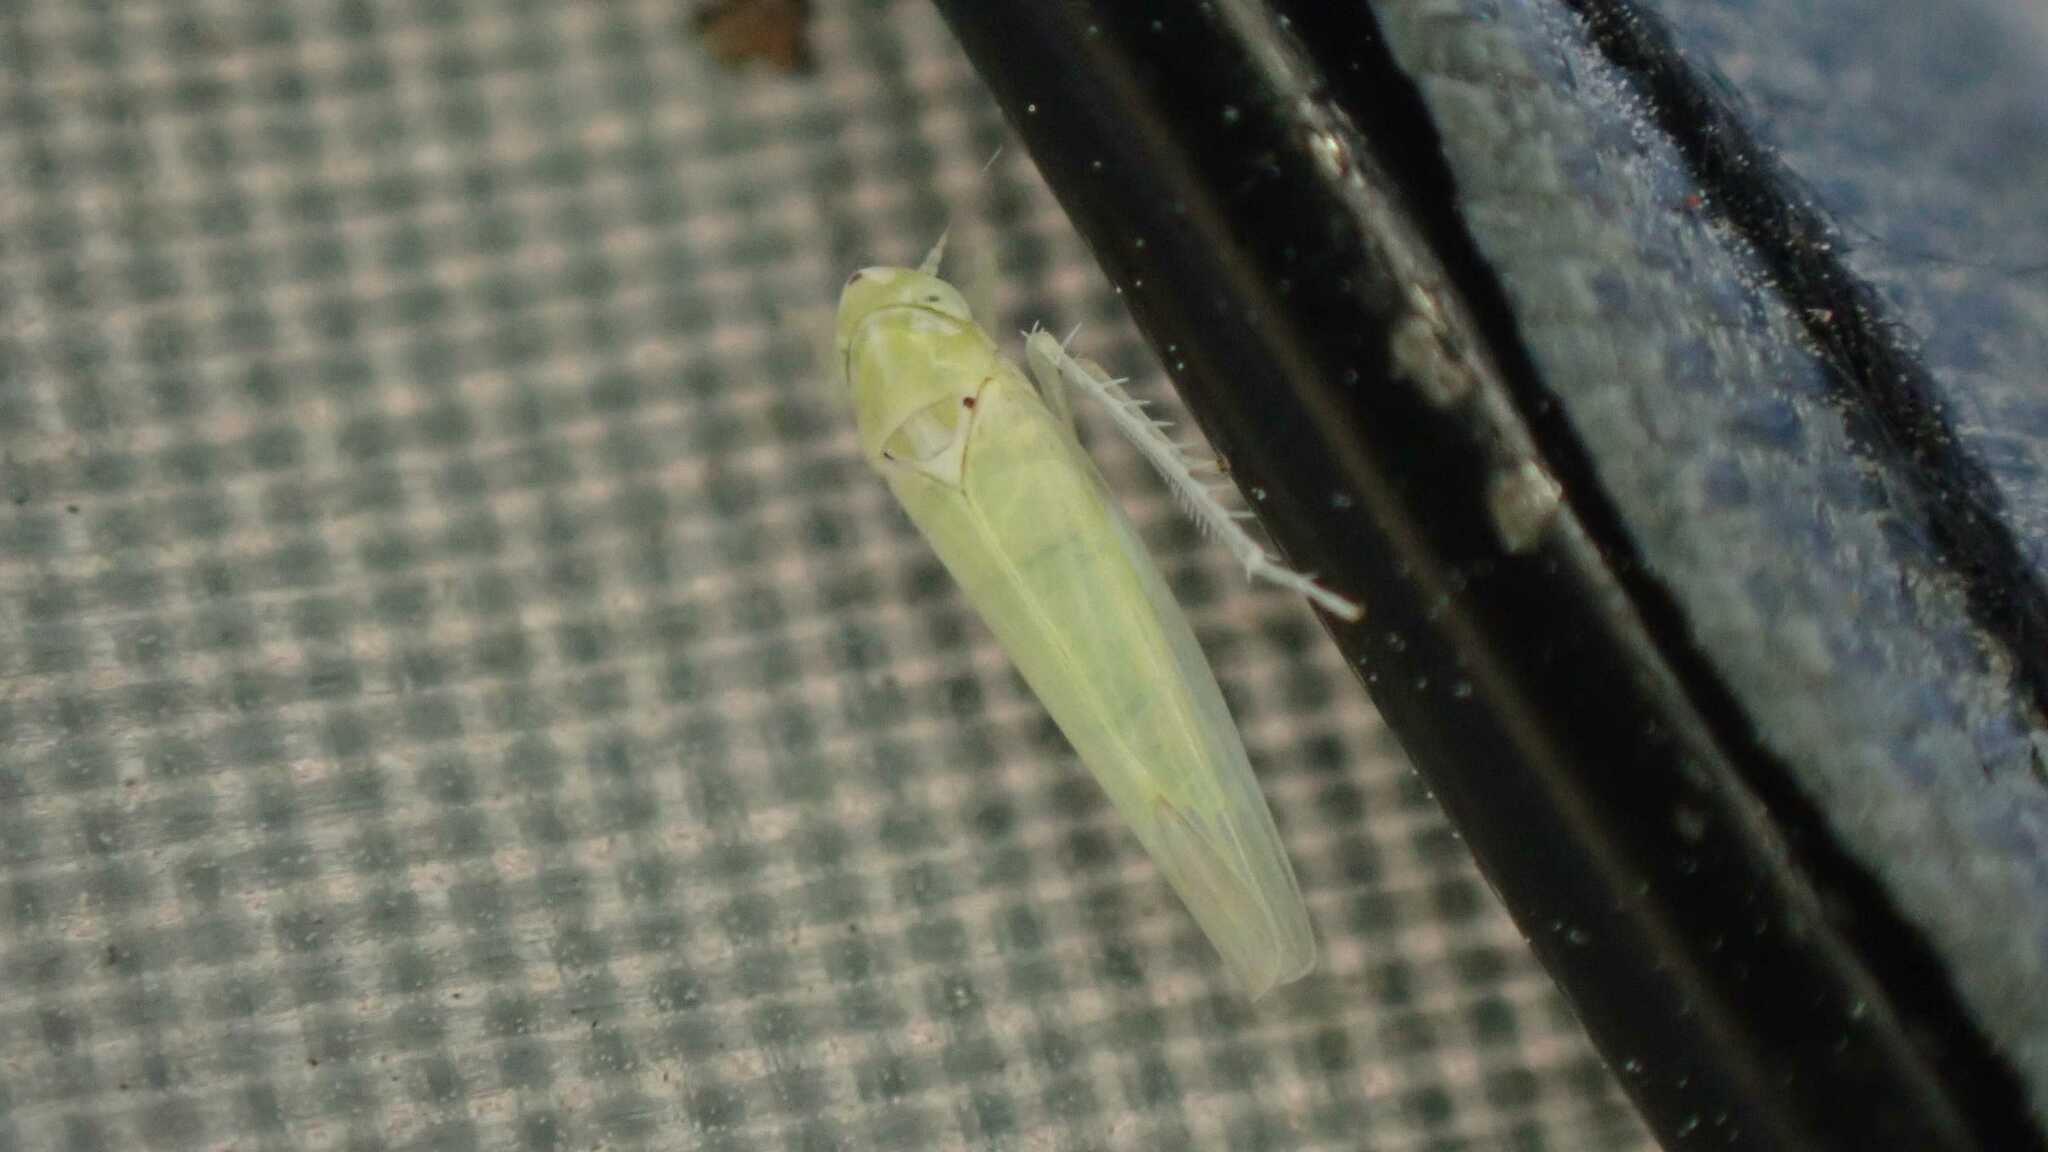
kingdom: Animalia
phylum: Arthropoda
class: Insecta
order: Hemiptera
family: Cicadellidae
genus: Zygina
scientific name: Zygina nivea
